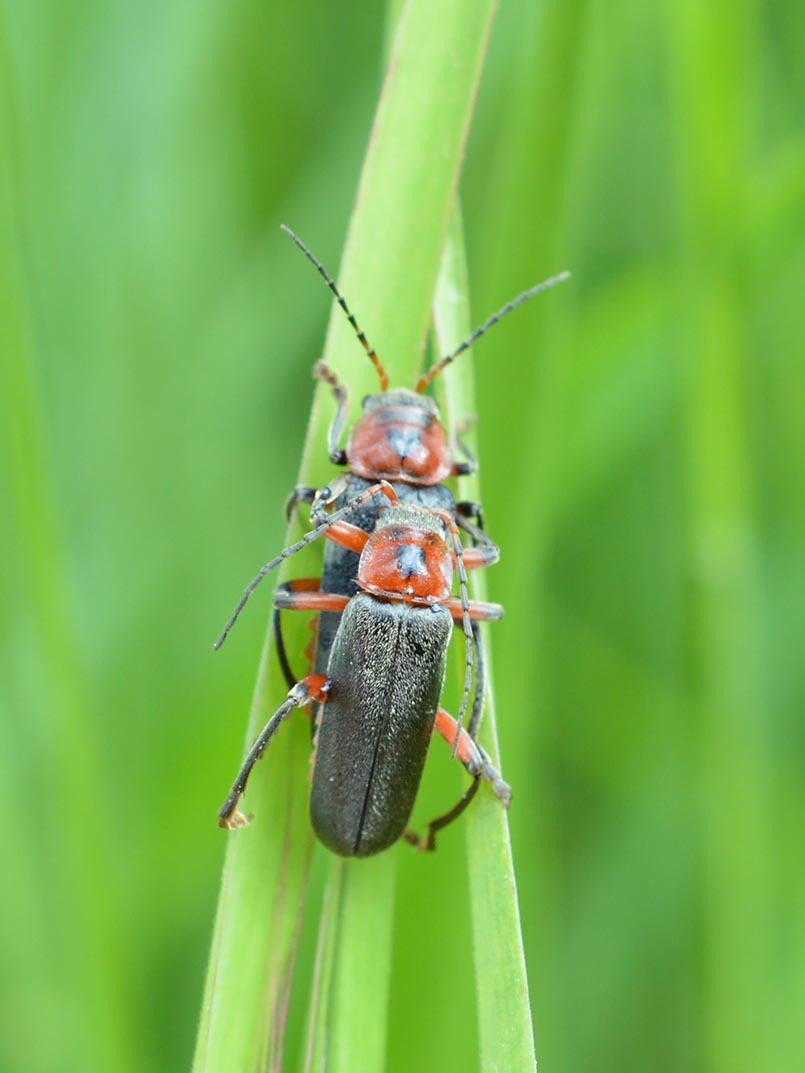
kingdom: Animalia
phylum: Arthropoda
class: Insecta
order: Coleoptera
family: Cantharidae
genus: Cantharis
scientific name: Cantharis rustica
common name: Soldier beetle
